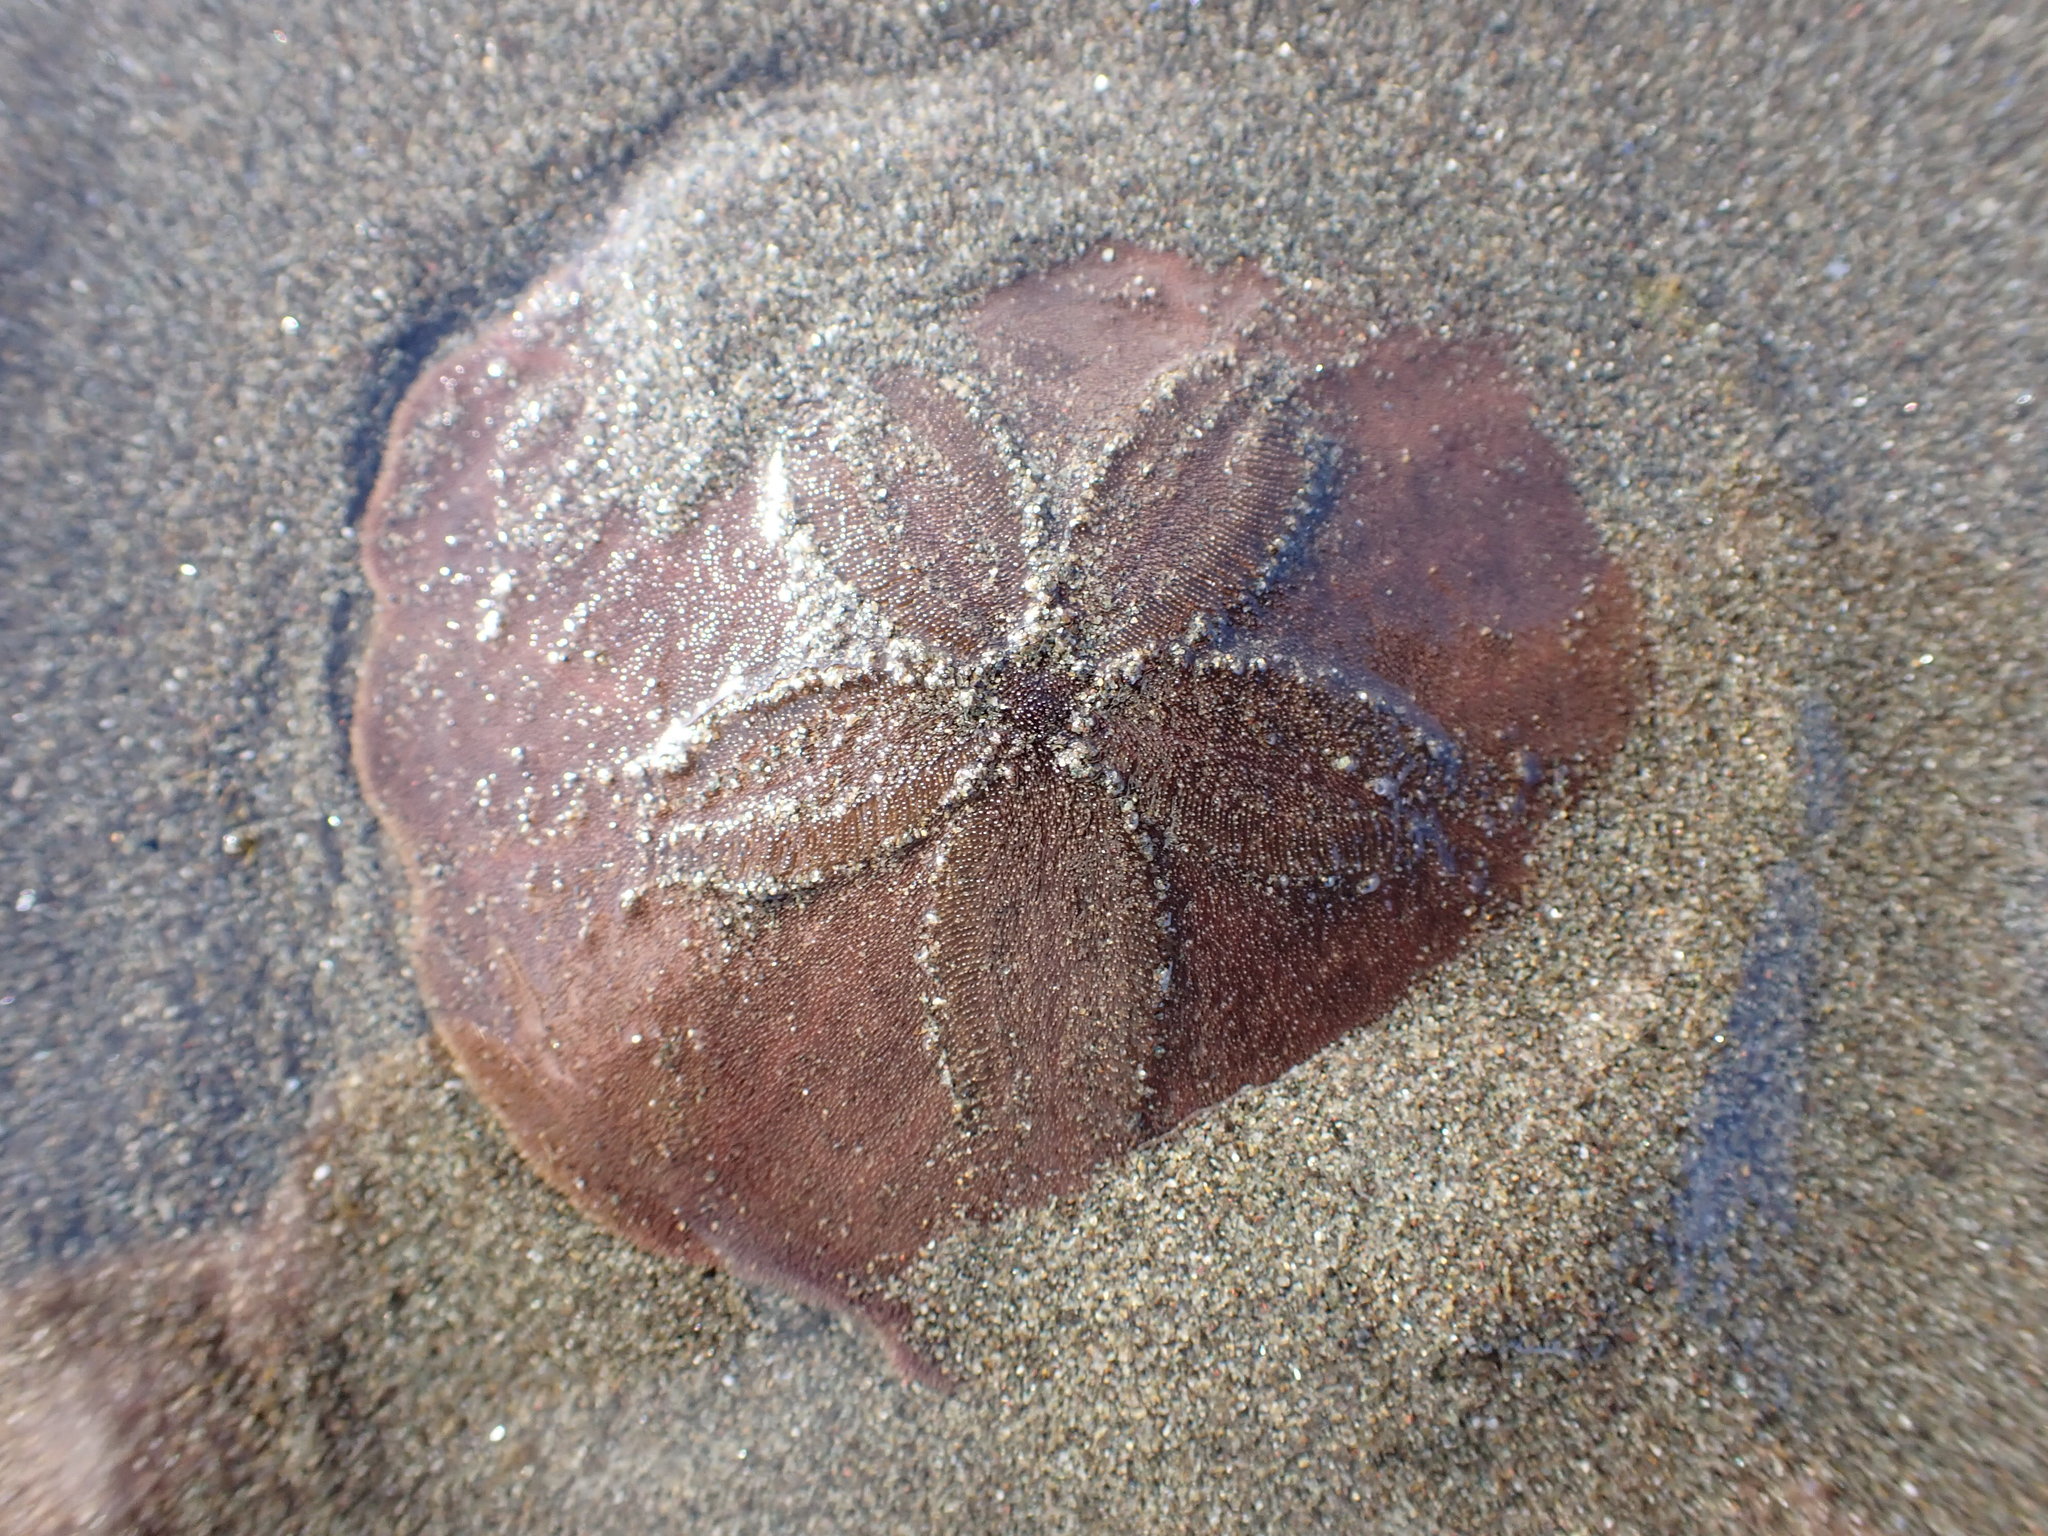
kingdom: Animalia
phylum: Echinodermata
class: Echinoidea
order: Echinolampadacea
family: Echinarachniidae
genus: Echinarachnius
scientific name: Echinarachnius parma
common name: Common sand dollar
